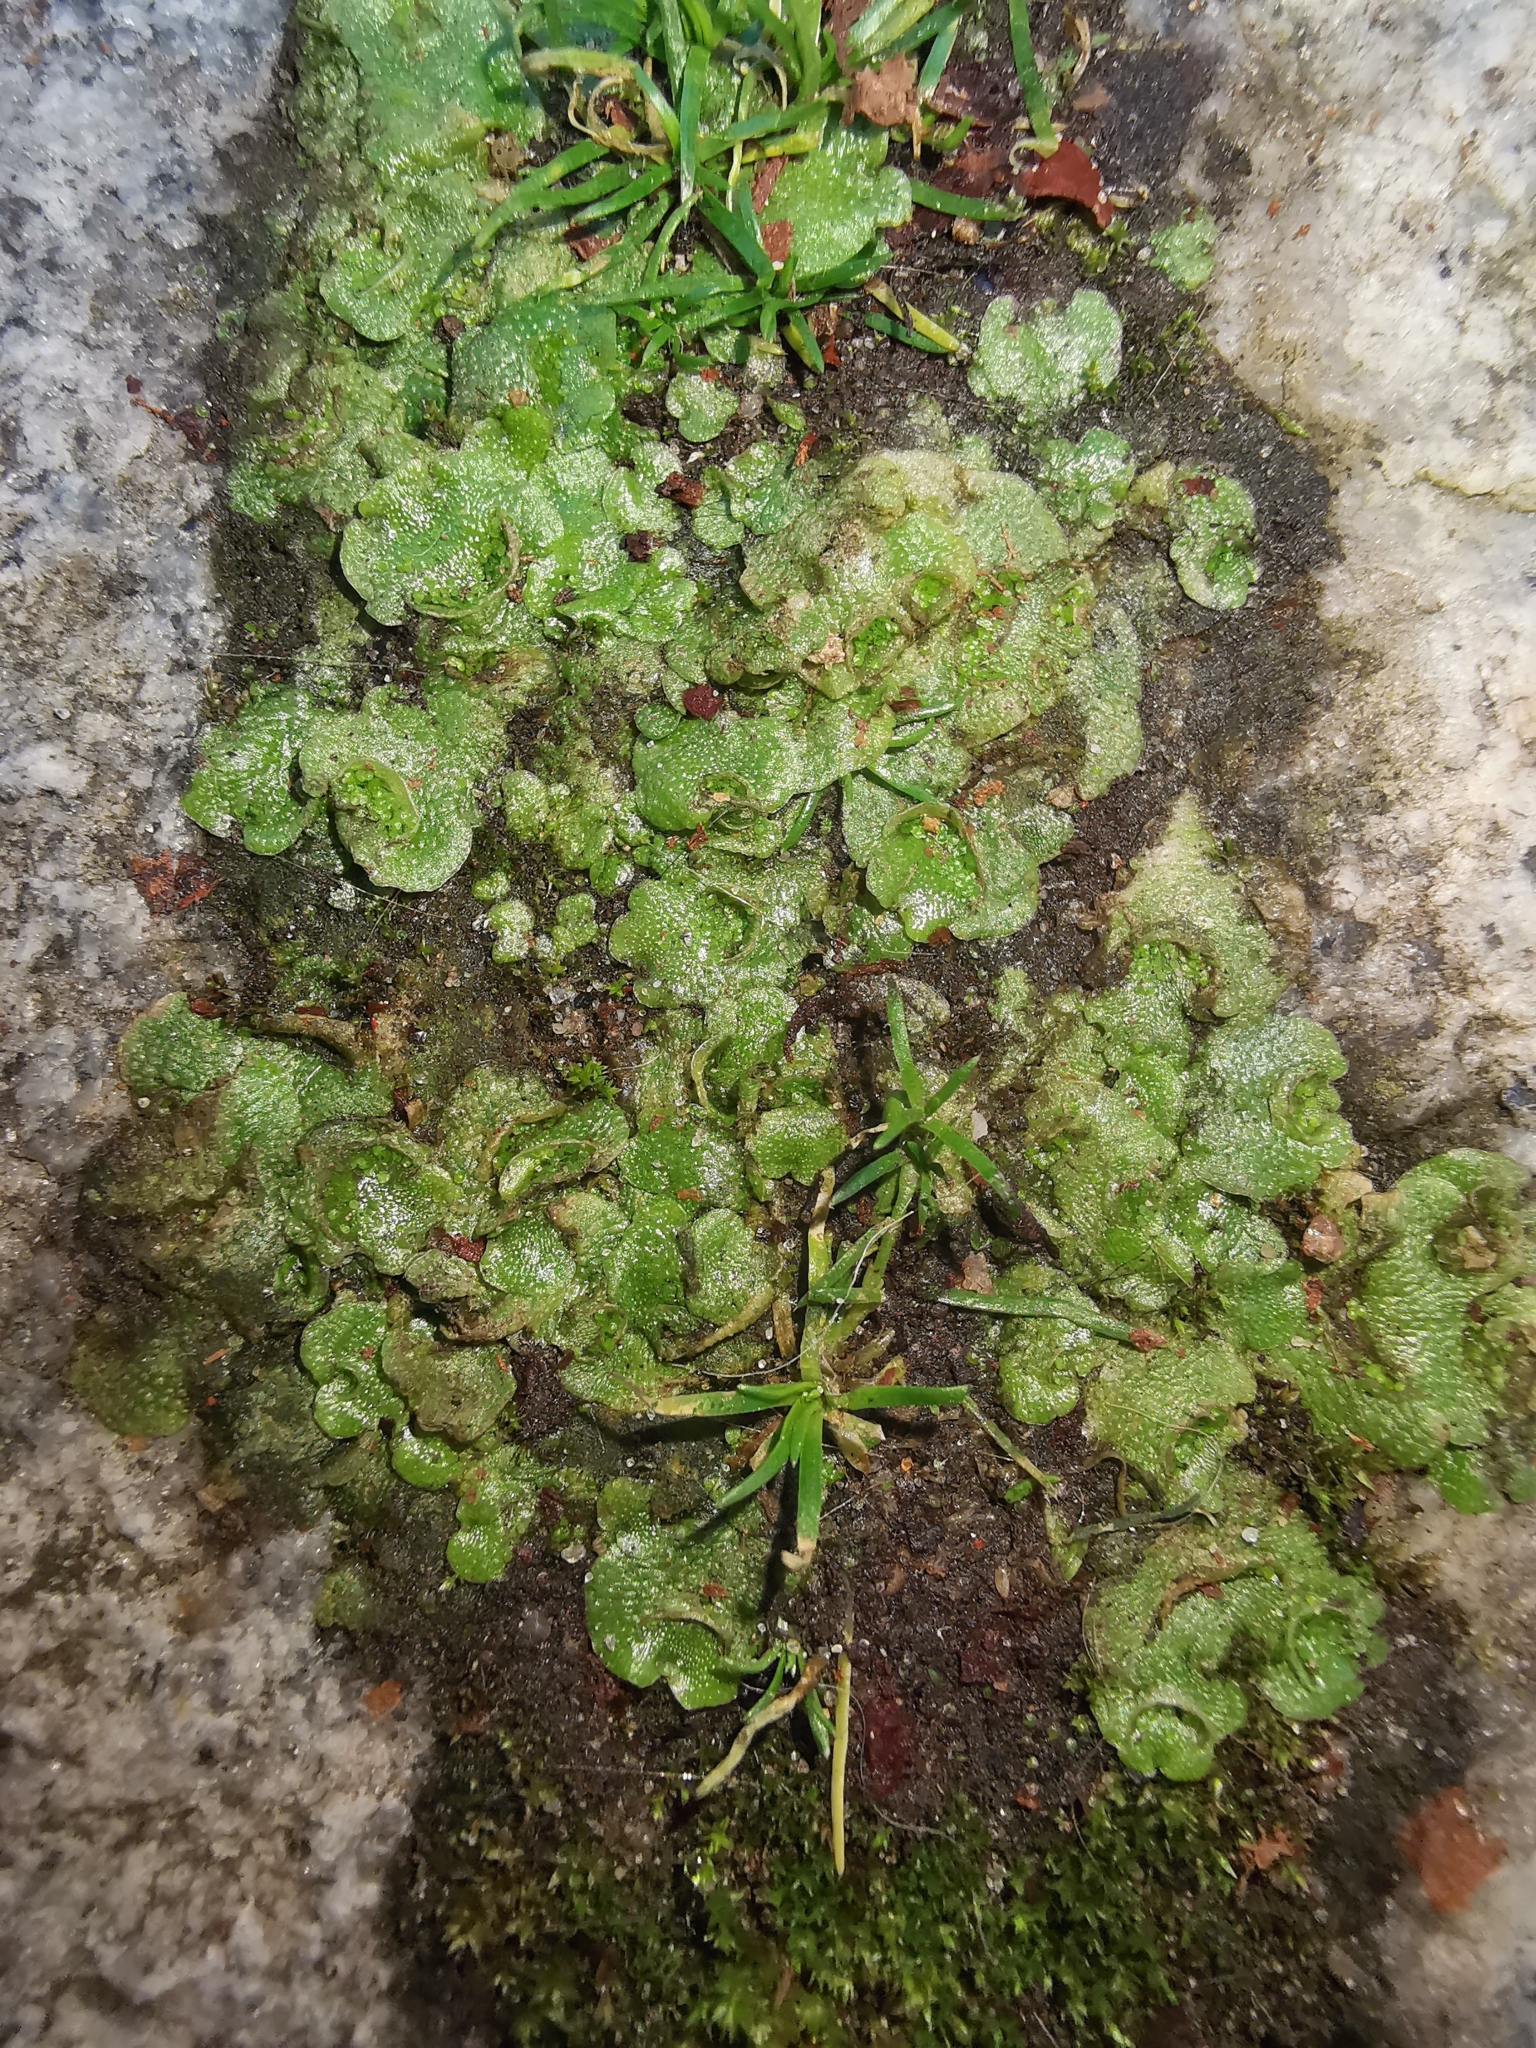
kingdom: Plantae
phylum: Marchantiophyta
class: Marchantiopsida
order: Lunulariales
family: Lunulariaceae
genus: Lunularia
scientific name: Lunularia cruciata
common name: Crescent-cup liverwort
